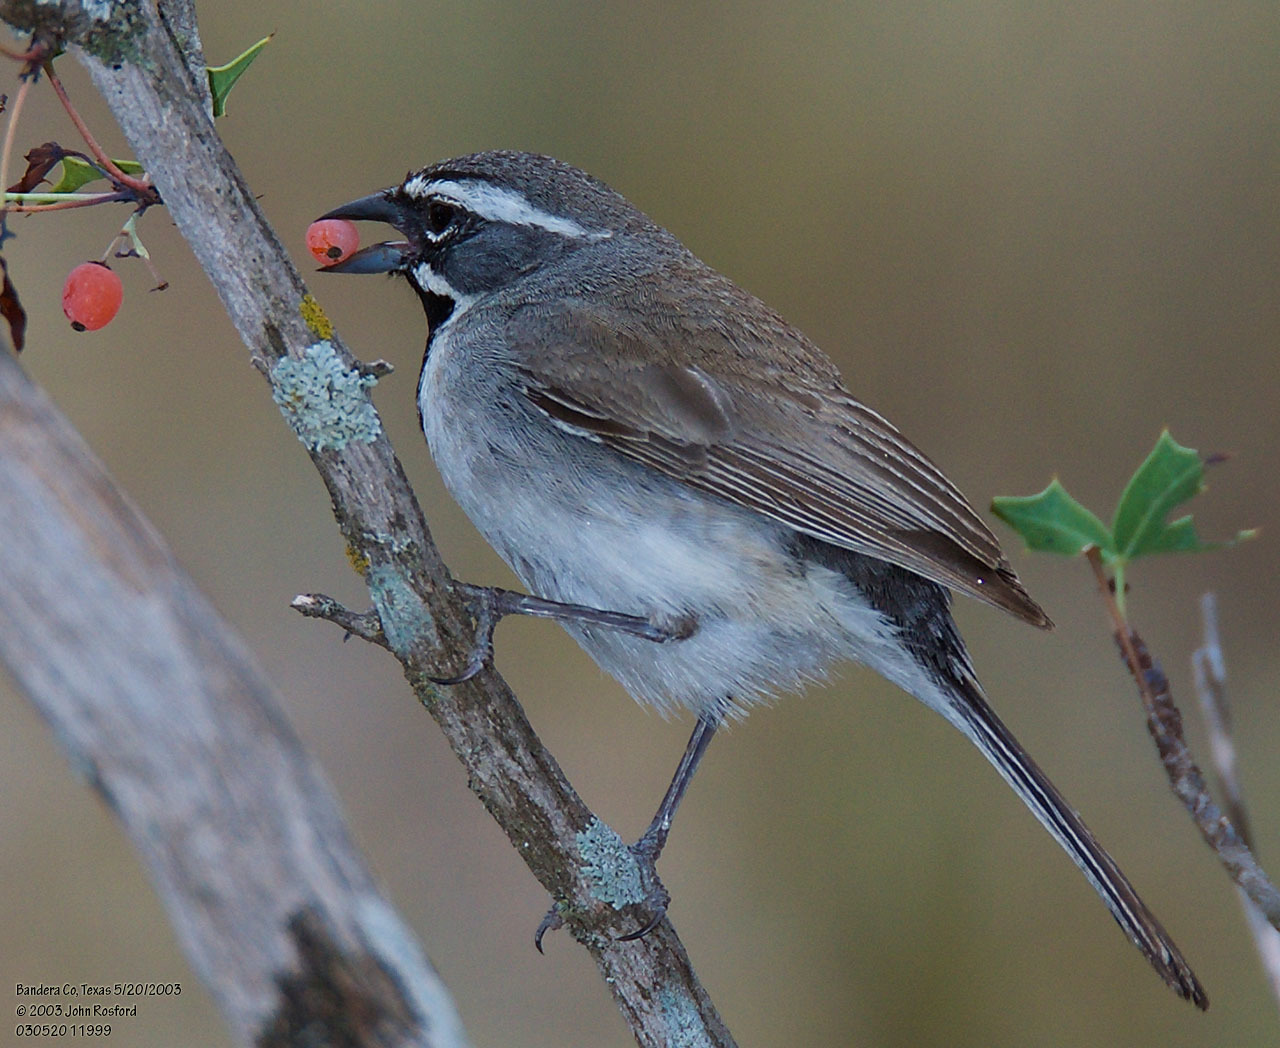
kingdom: Animalia
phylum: Chordata
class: Aves
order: Passeriformes
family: Passerellidae
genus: Amphispiza
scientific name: Amphispiza bilineata
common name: Black-throated sparrow
